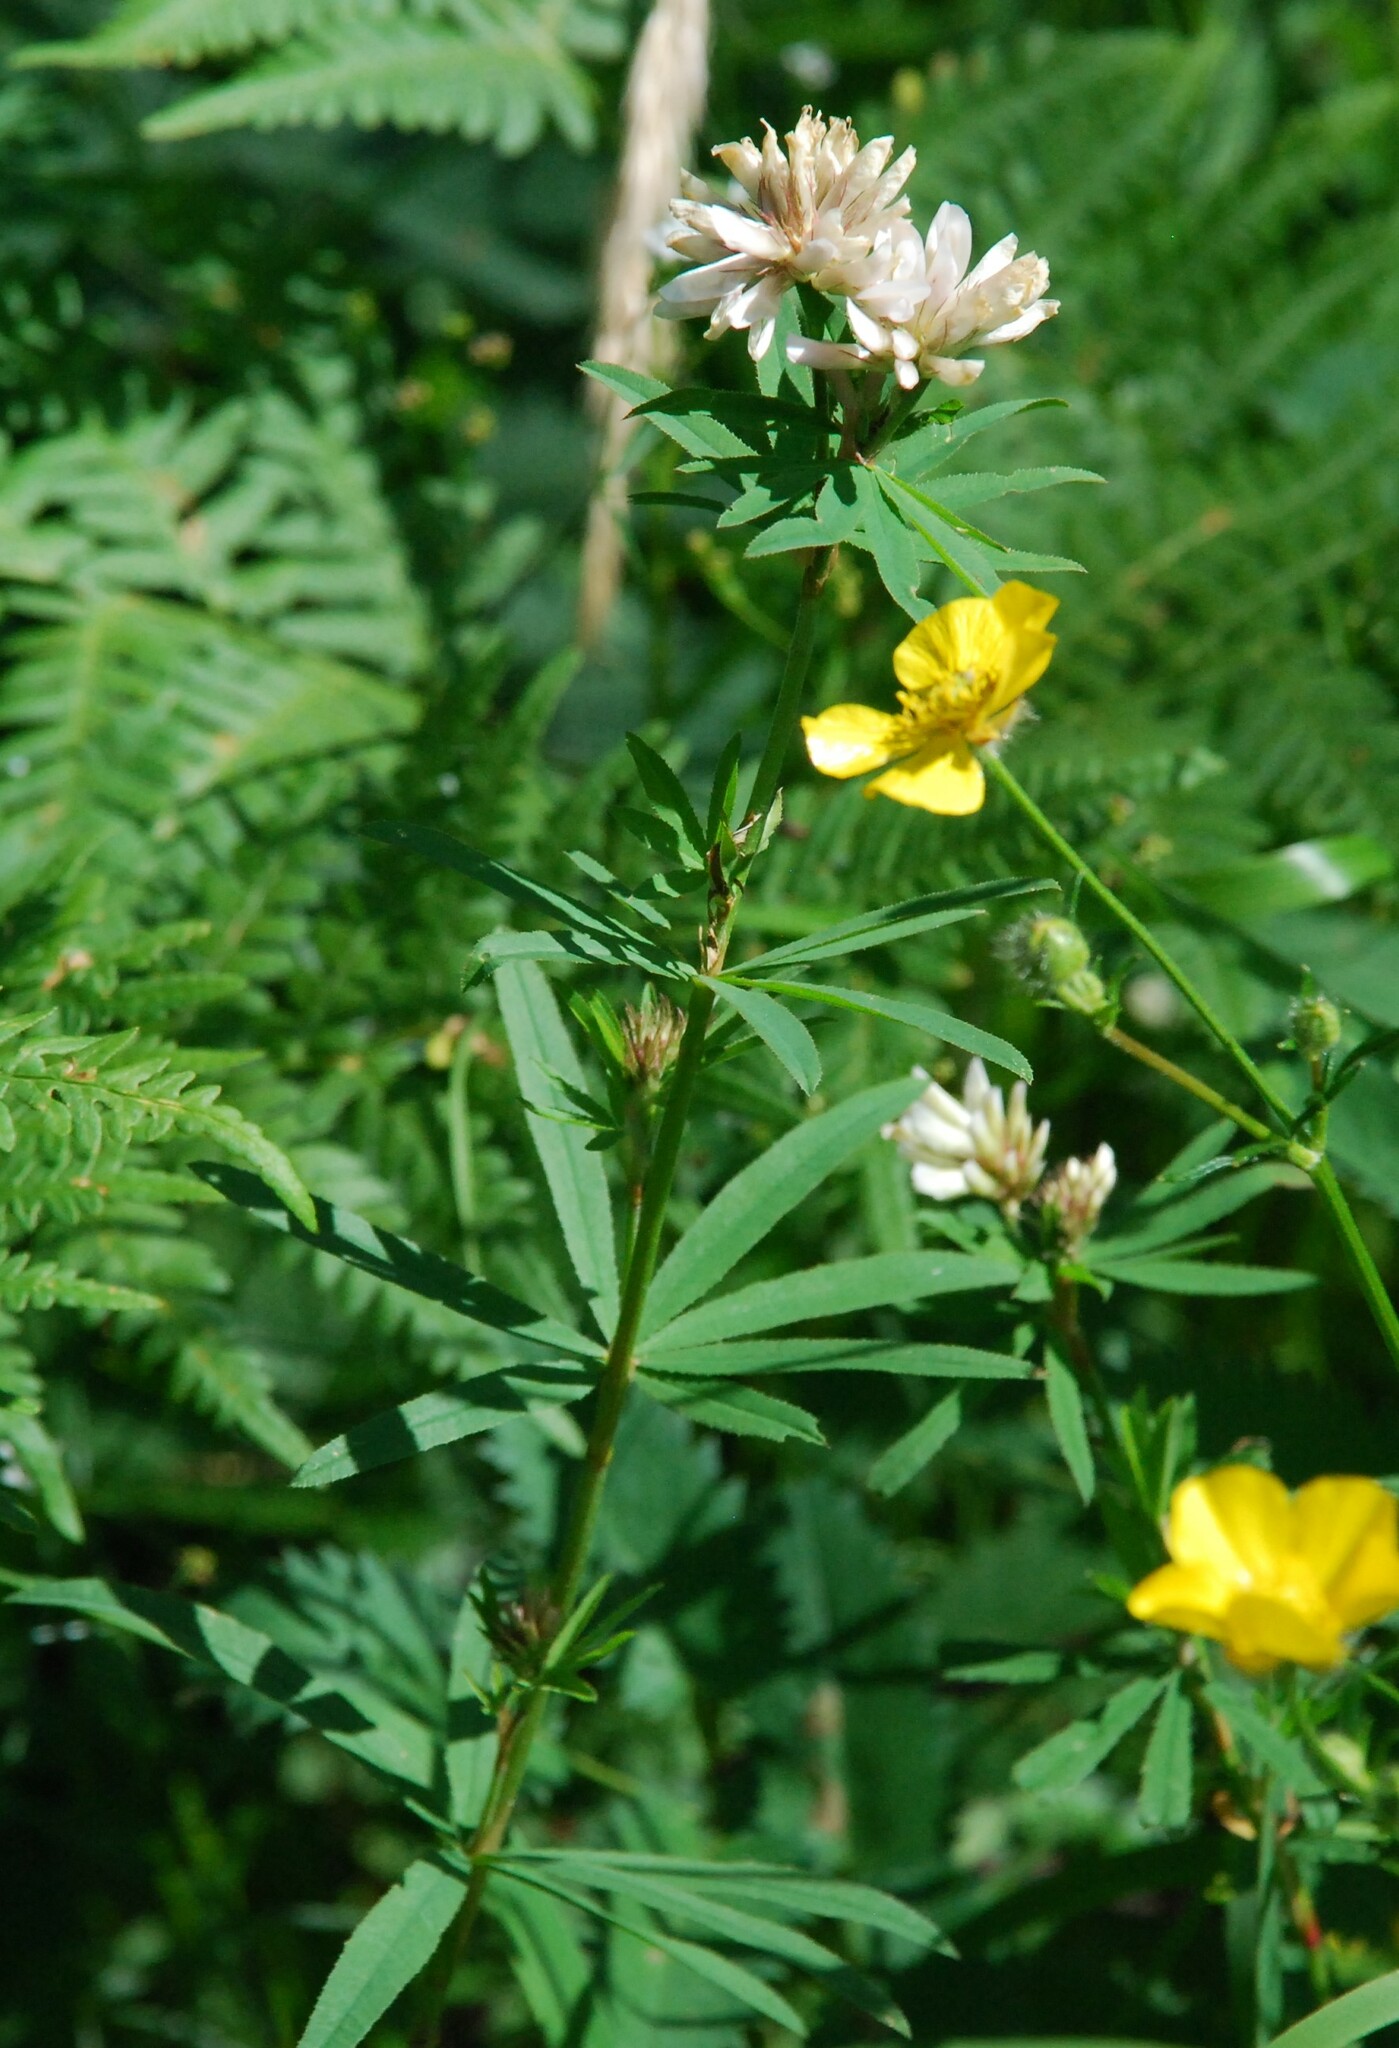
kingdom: Plantae
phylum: Tracheophyta
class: Magnoliopsida
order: Fabales
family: Fabaceae
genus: Trifolium
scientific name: Trifolium lupinaster
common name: Lupine clover
